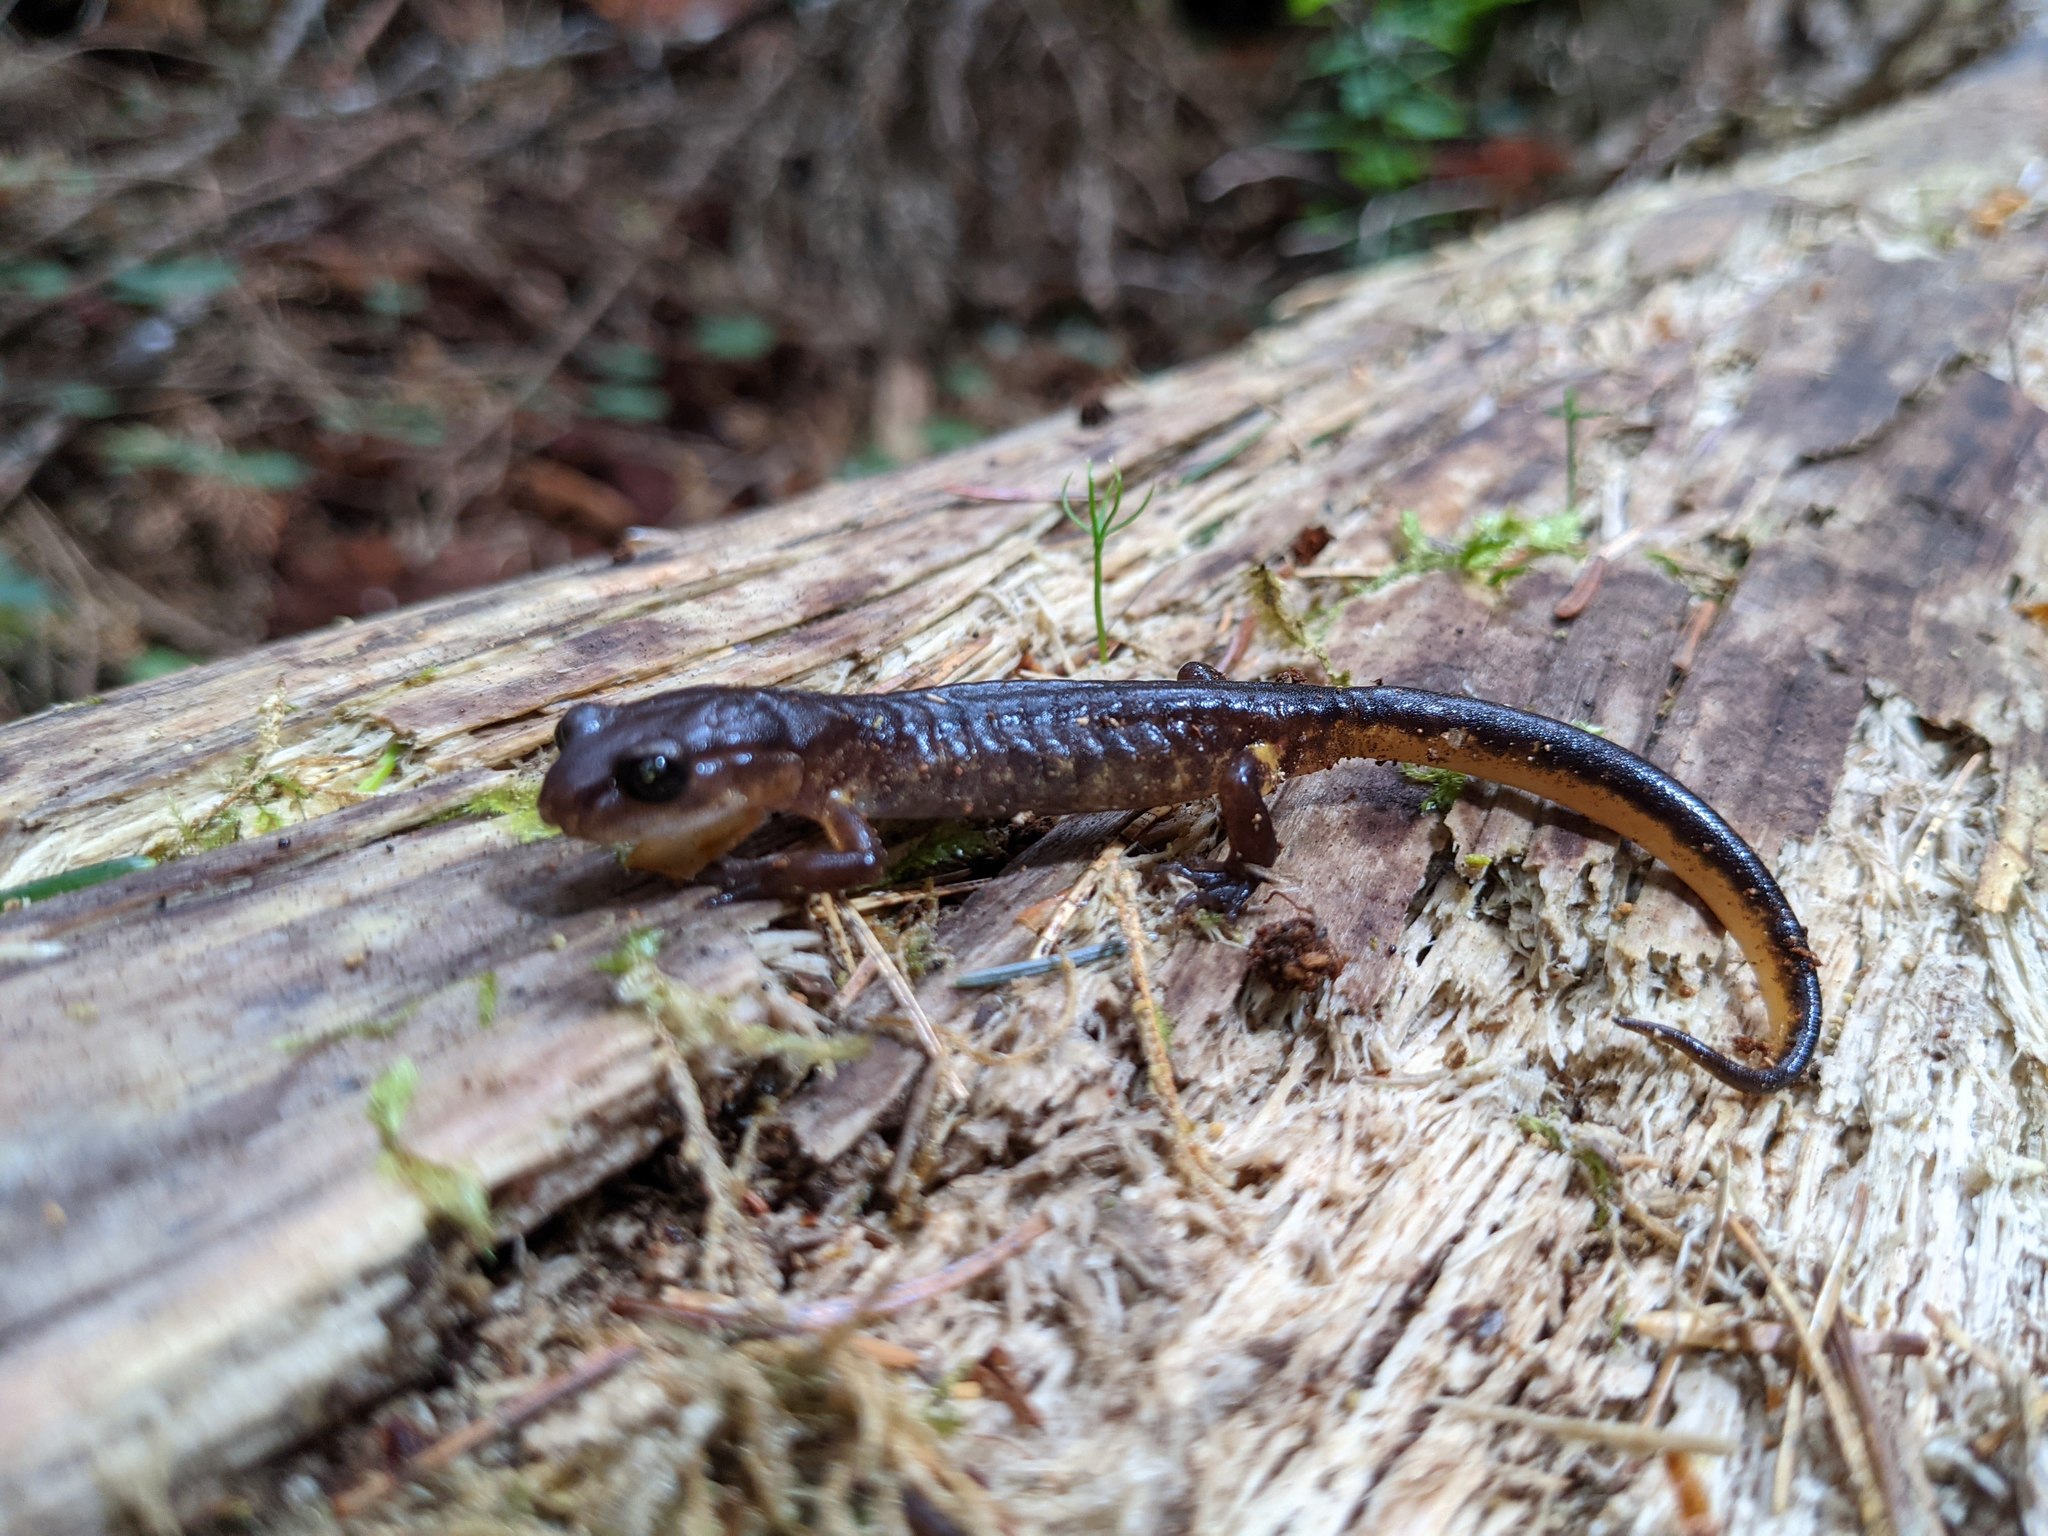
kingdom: Animalia
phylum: Chordata
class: Amphibia
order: Caudata
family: Plethodontidae
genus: Ensatina
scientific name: Ensatina eschscholtzii
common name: Ensatina
